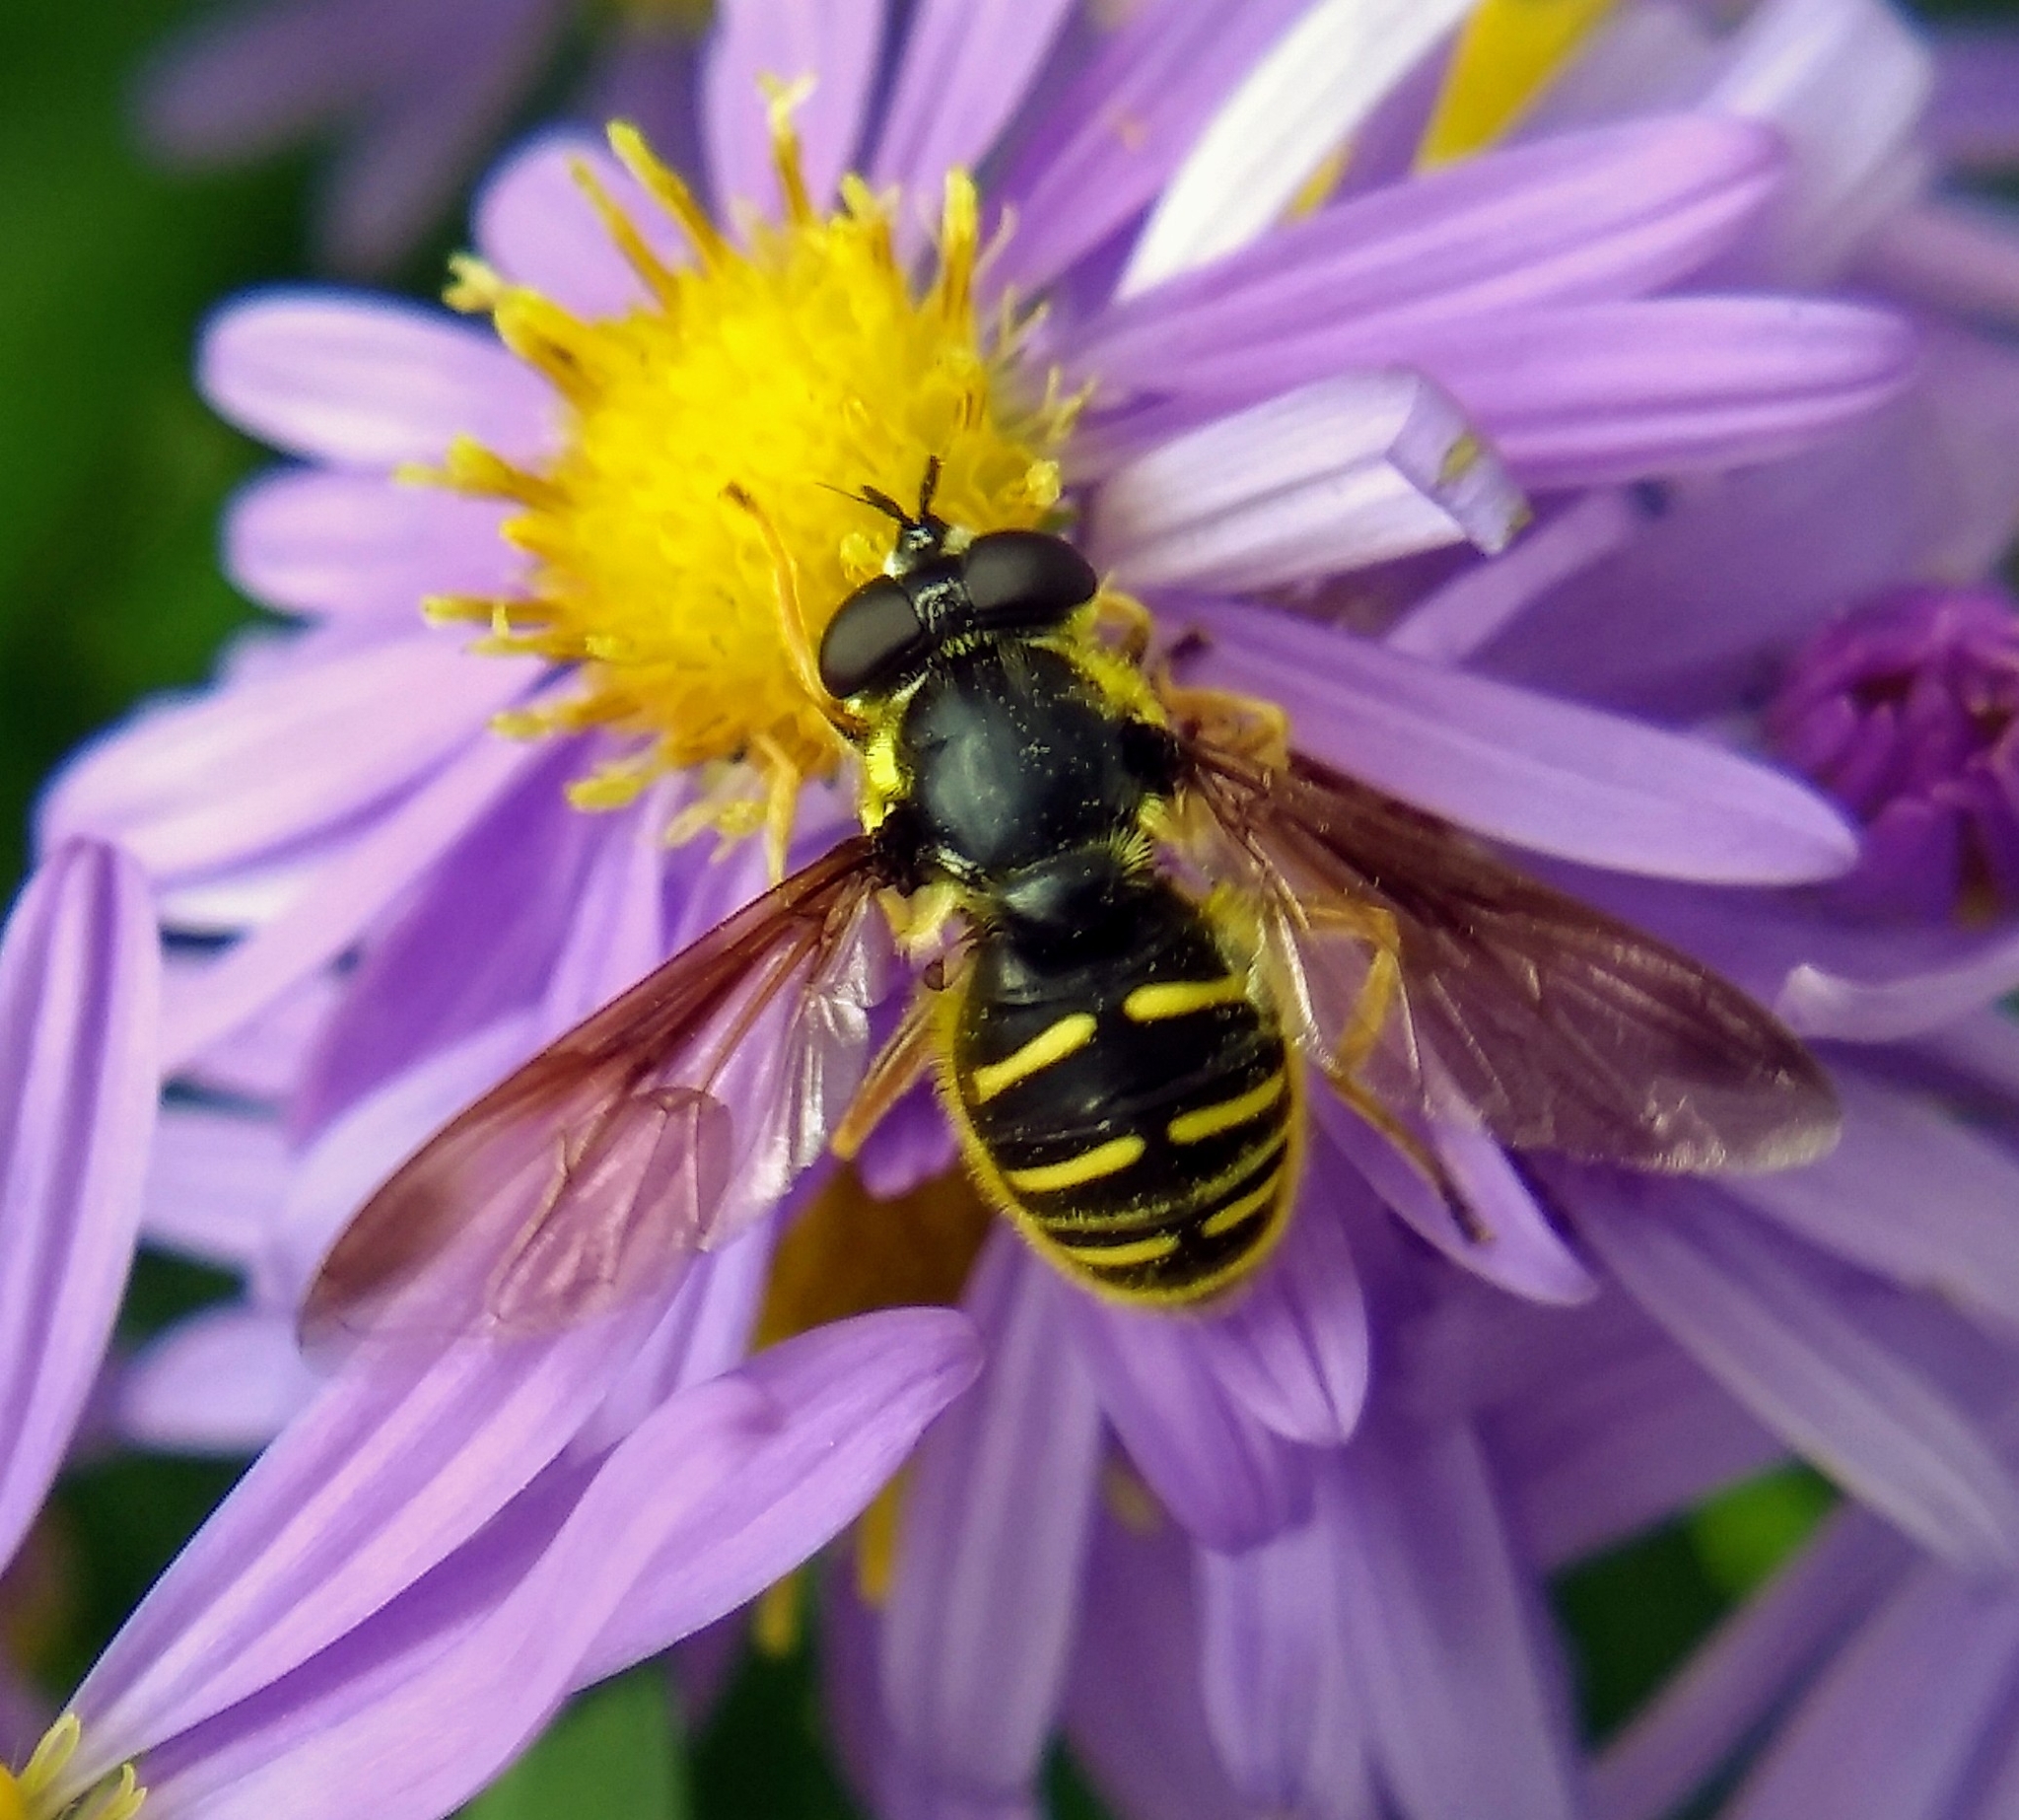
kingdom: Animalia
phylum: Arthropoda
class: Insecta
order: Diptera
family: Syrphidae
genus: Sericomyia
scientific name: Sericomyia chrysotoxoides
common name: Oblique-banded pond fly
